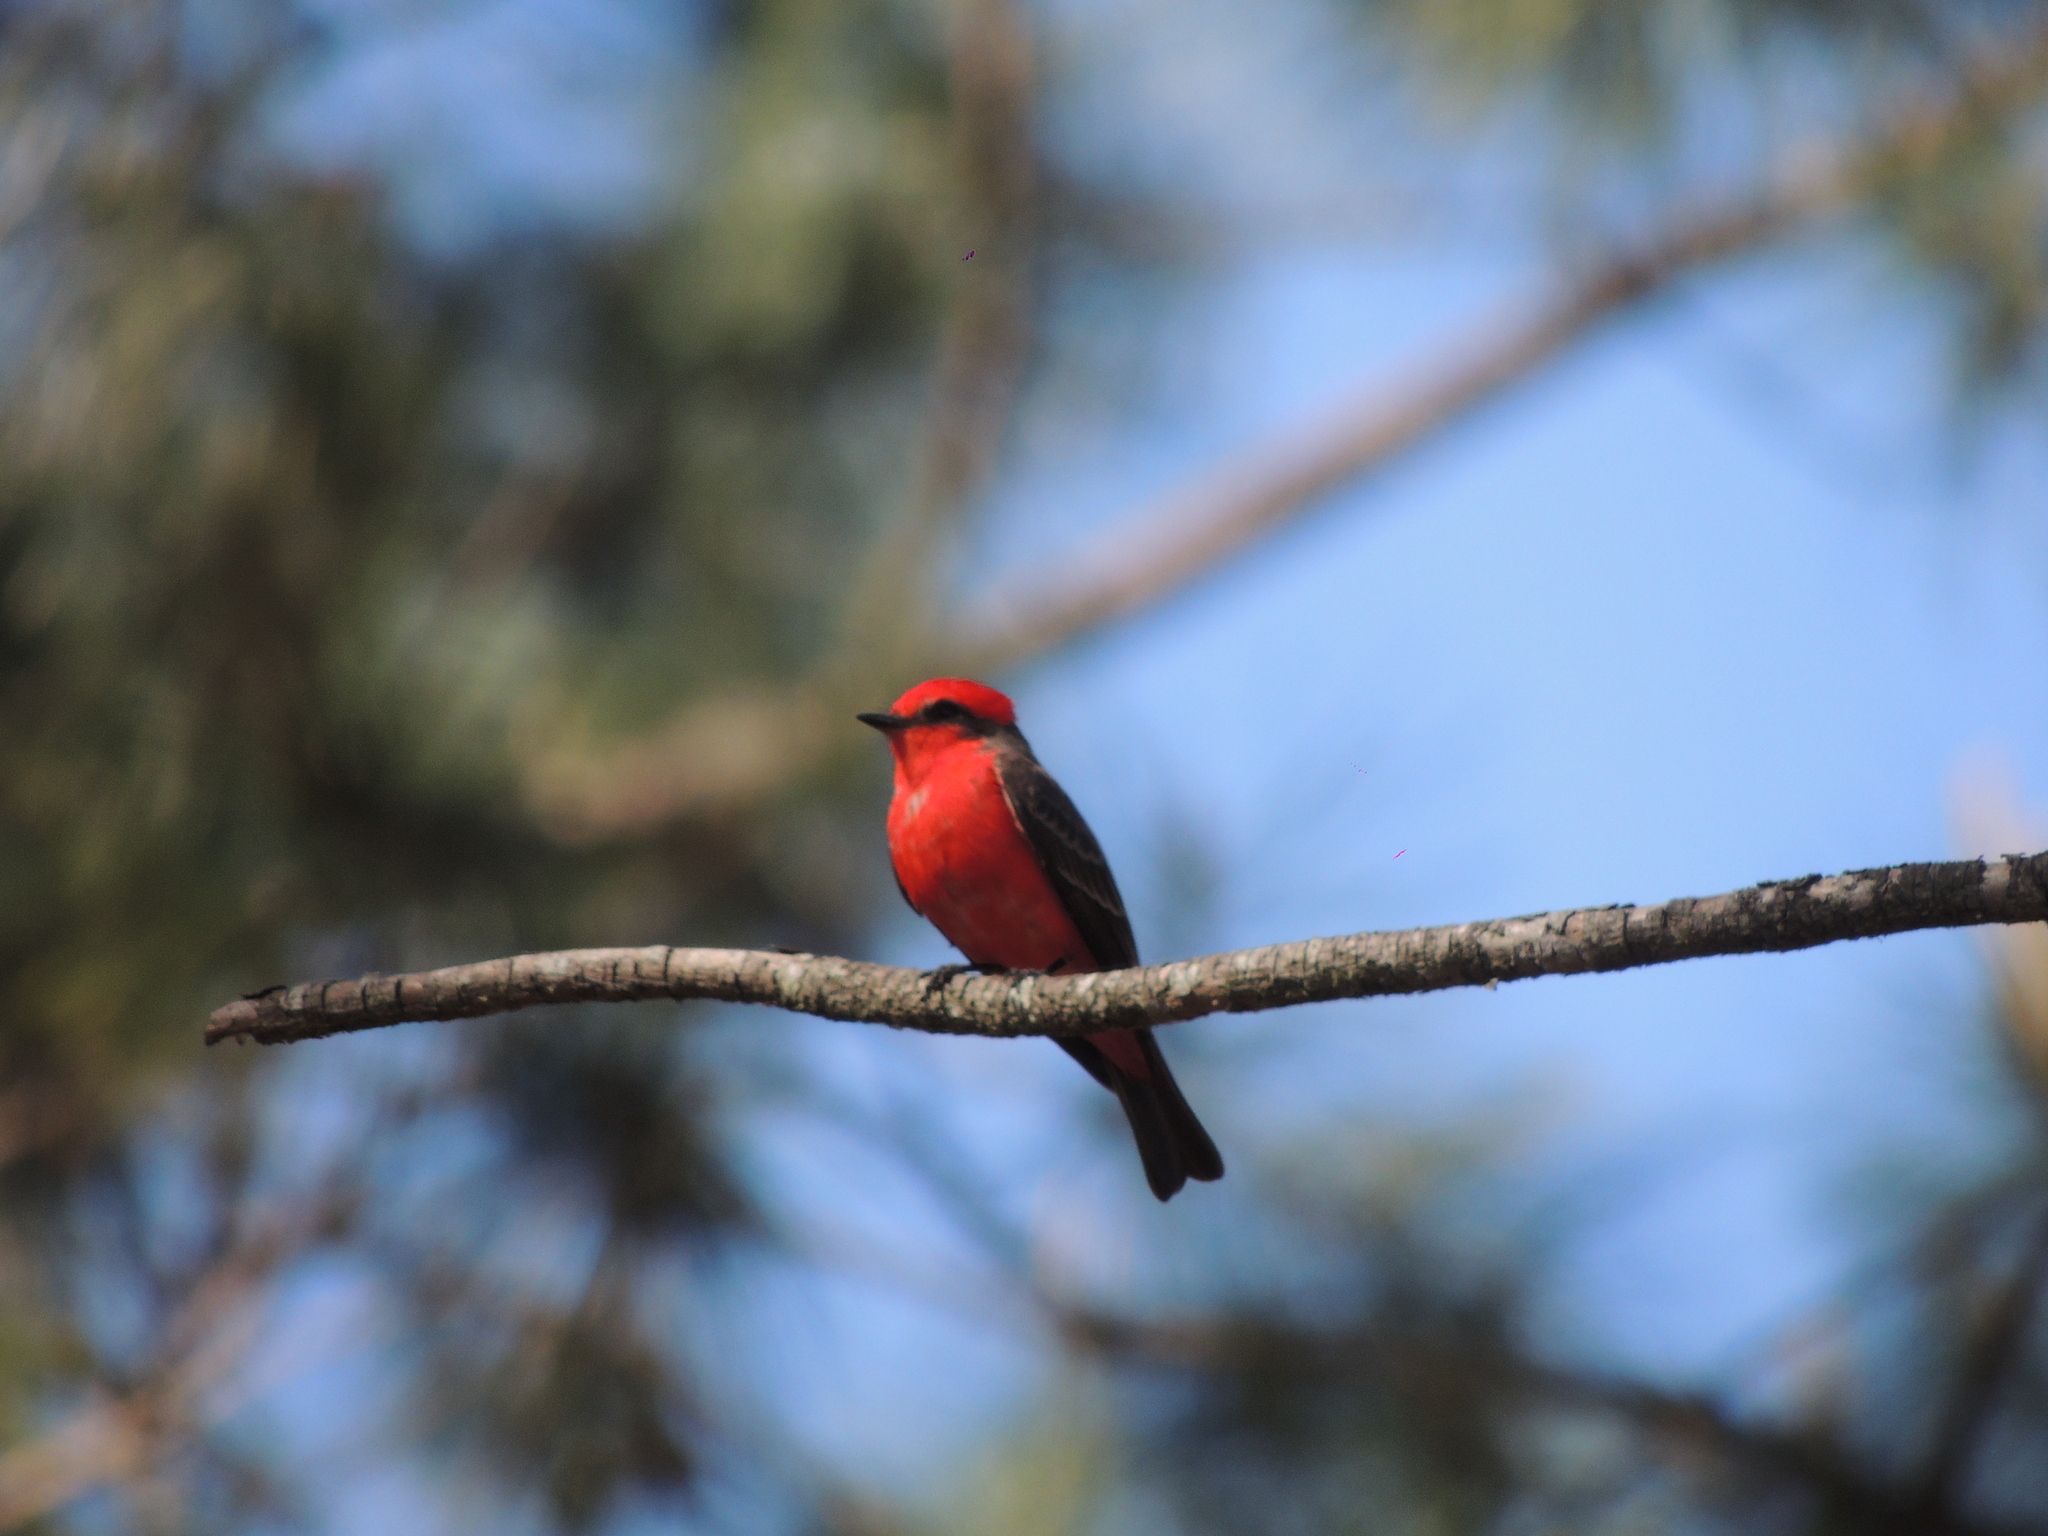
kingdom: Animalia
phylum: Chordata
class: Aves
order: Passeriformes
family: Tyrannidae
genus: Pyrocephalus
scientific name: Pyrocephalus rubinus
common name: Vermilion flycatcher
